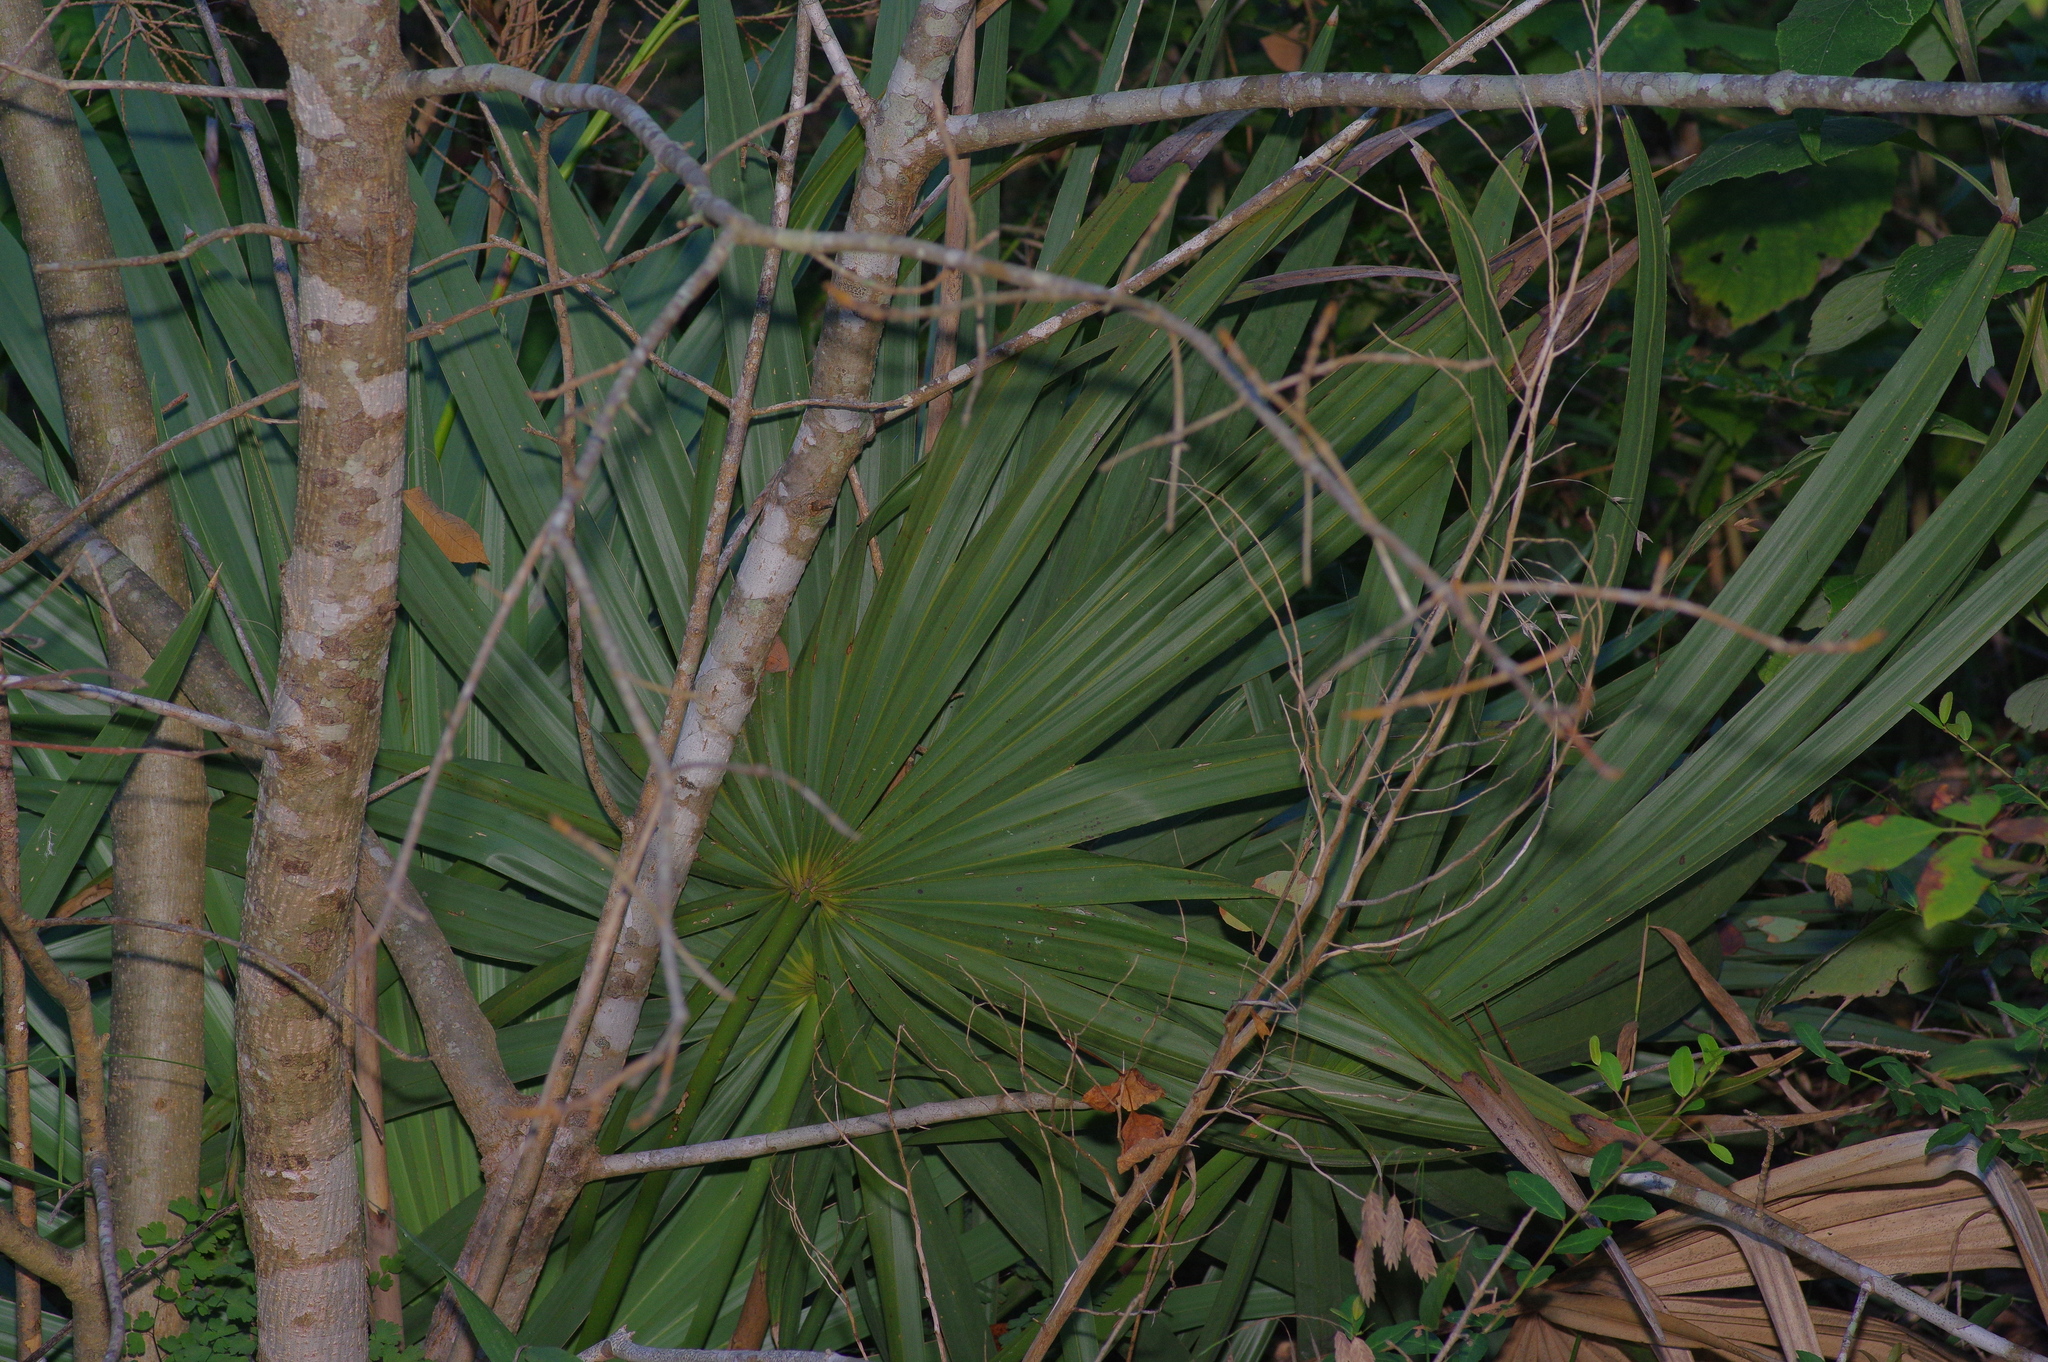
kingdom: Plantae
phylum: Tracheophyta
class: Liliopsida
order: Arecales
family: Arecaceae
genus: Sabal
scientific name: Sabal minor
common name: Dwarf palmetto
